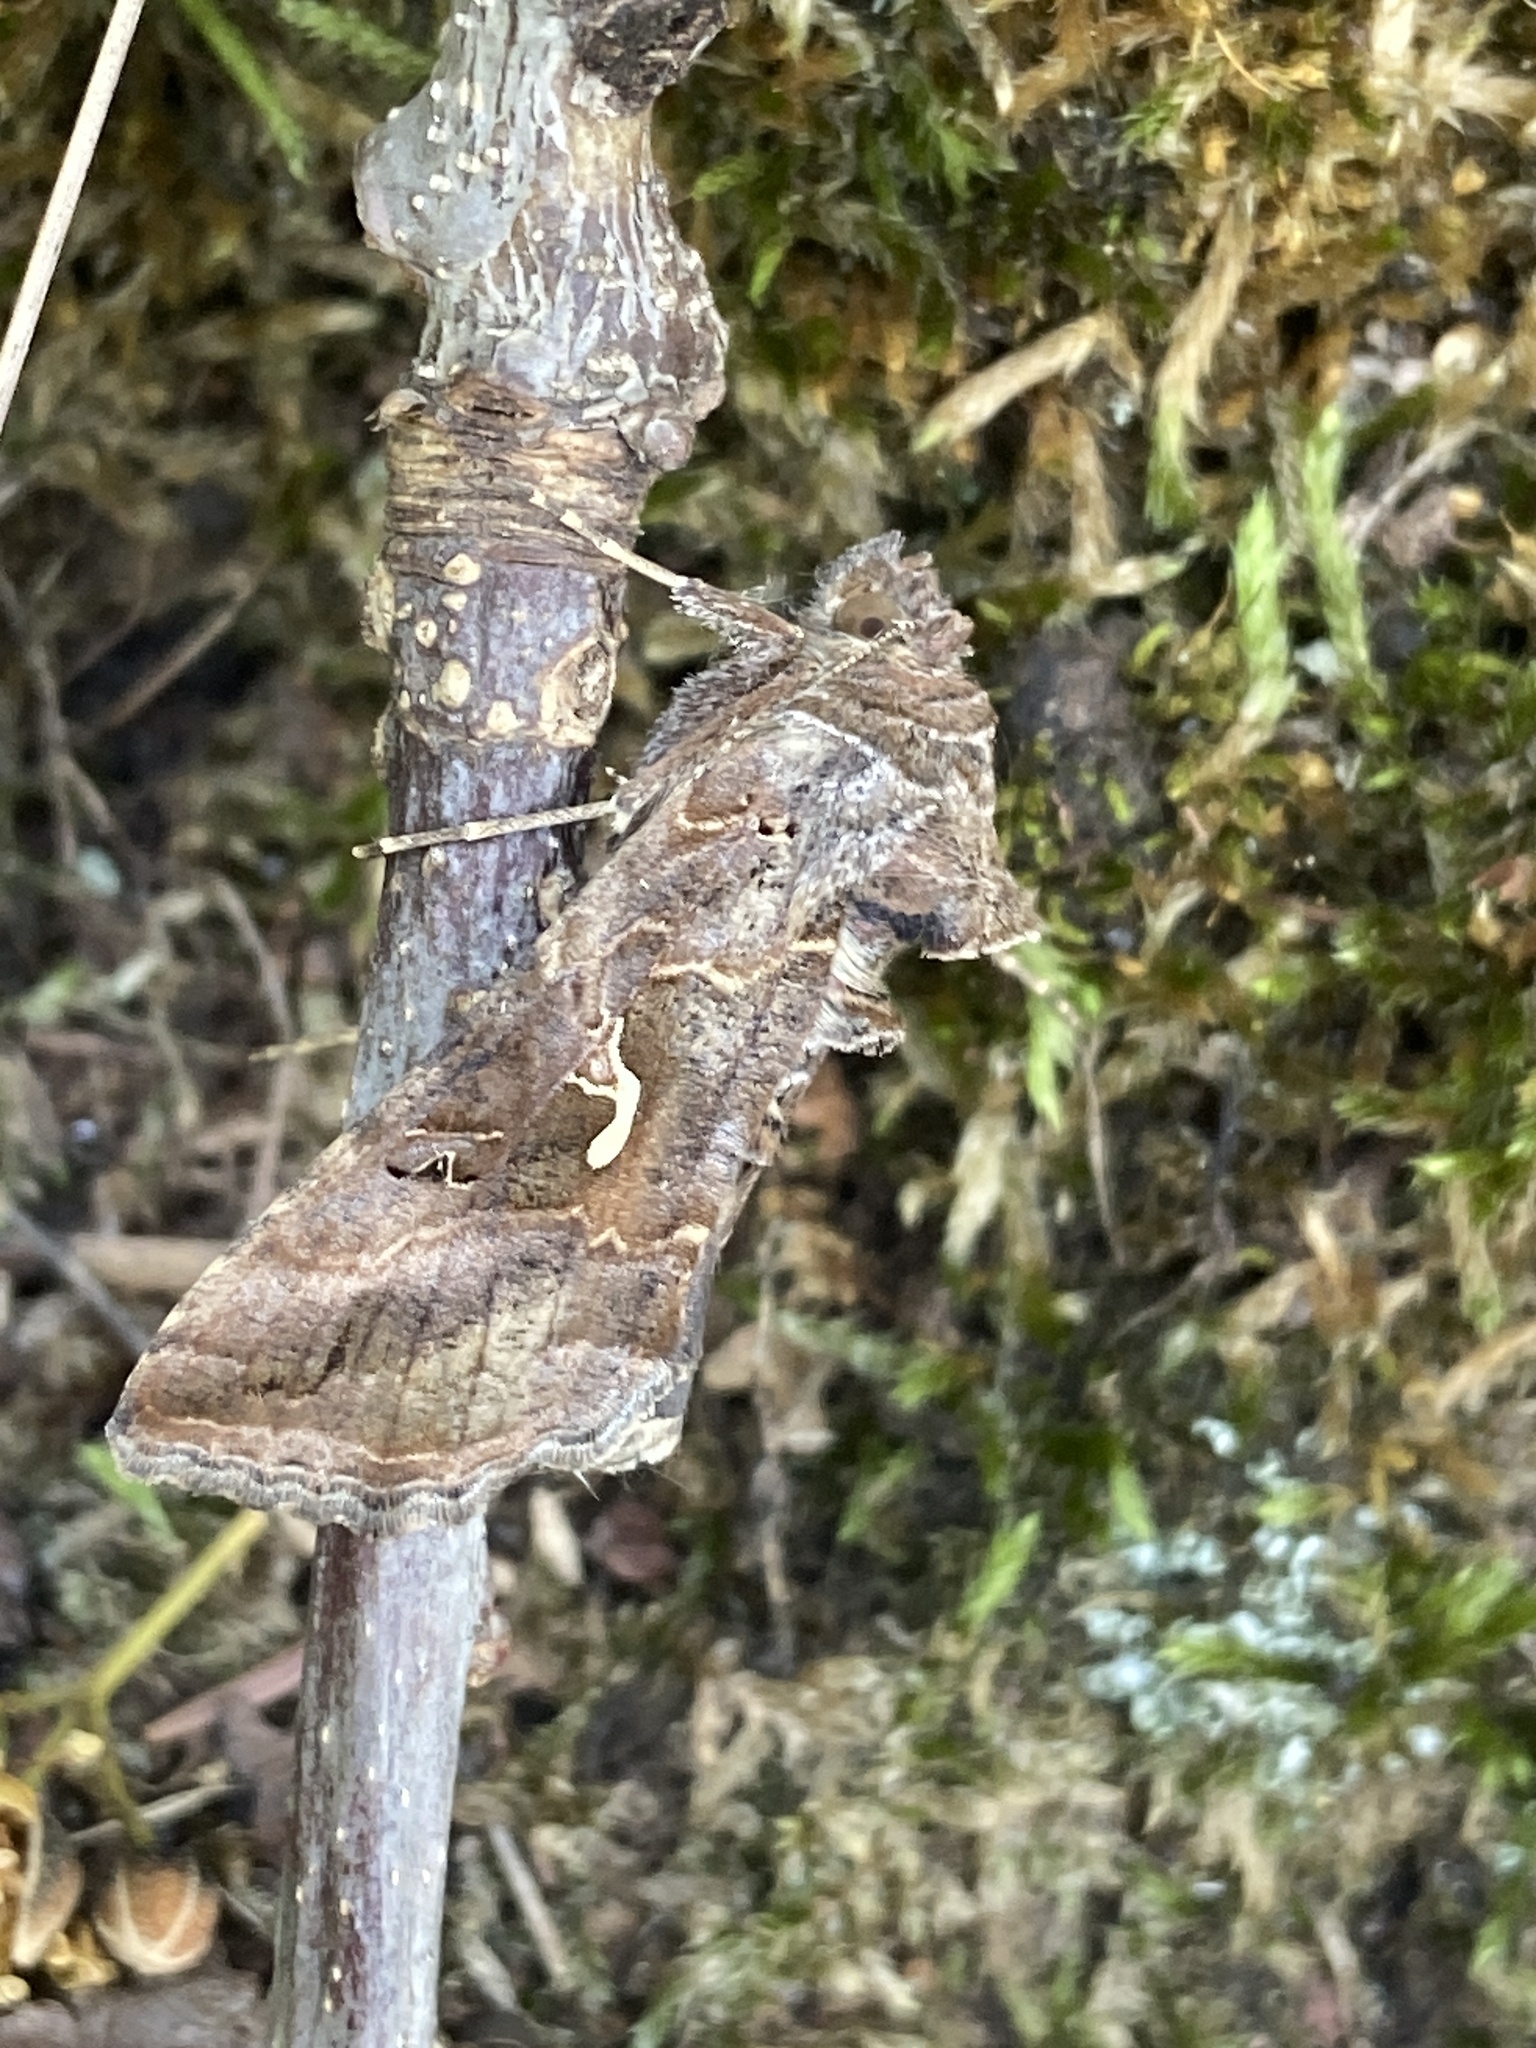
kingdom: Animalia
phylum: Arthropoda
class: Insecta
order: Lepidoptera
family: Noctuidae
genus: Autographa
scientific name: Autographa gamma
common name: Silver y
